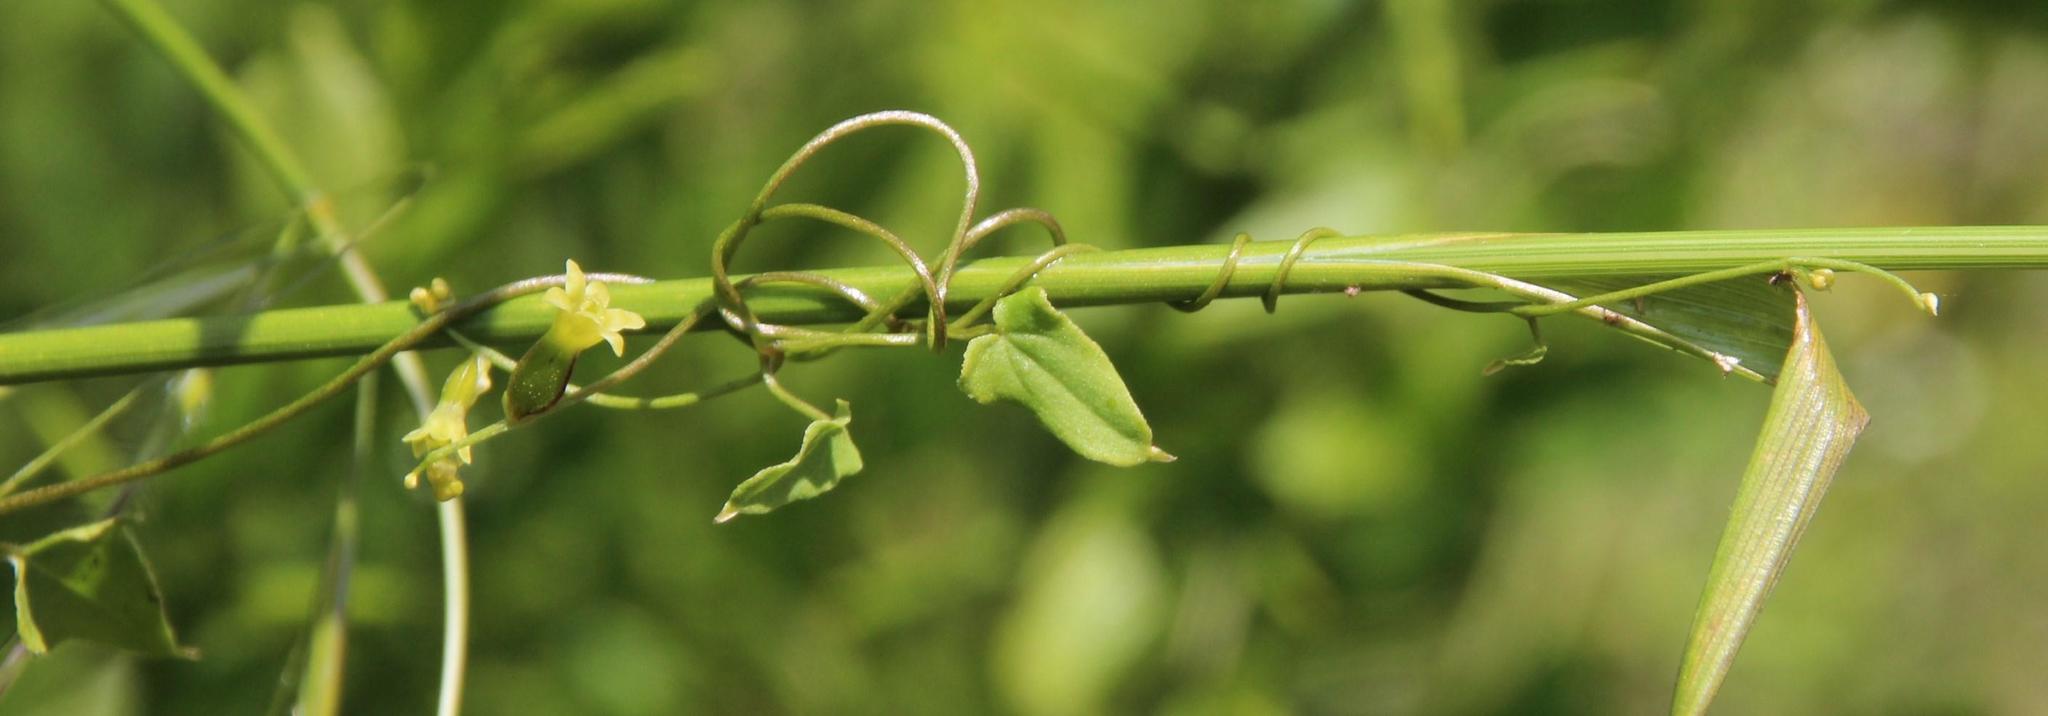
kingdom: Plantae
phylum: Tracheophyta
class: Liliopsida
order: Dioscoreales
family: Dioscoreaceae
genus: Dioscorea
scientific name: Dioscorea saxatilis
